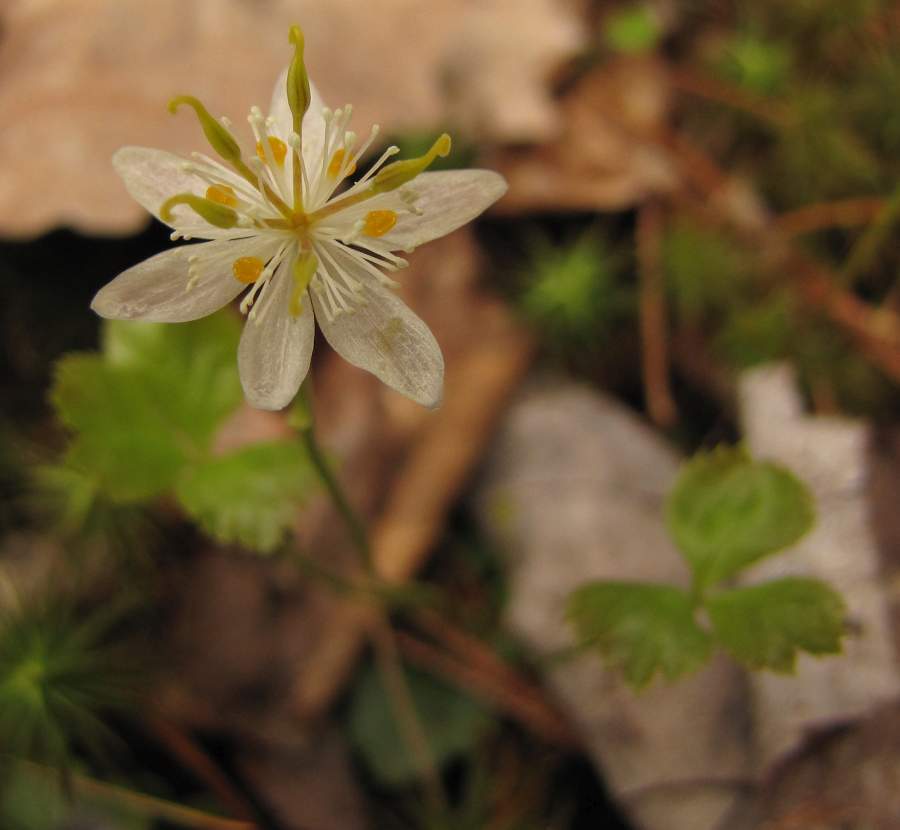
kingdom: Plantae
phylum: Tracheophyta
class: Magnoliopsida
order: Ranunculales
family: Ranunculaceae
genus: Coptis
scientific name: Coptis trifolia
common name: Canker-root
